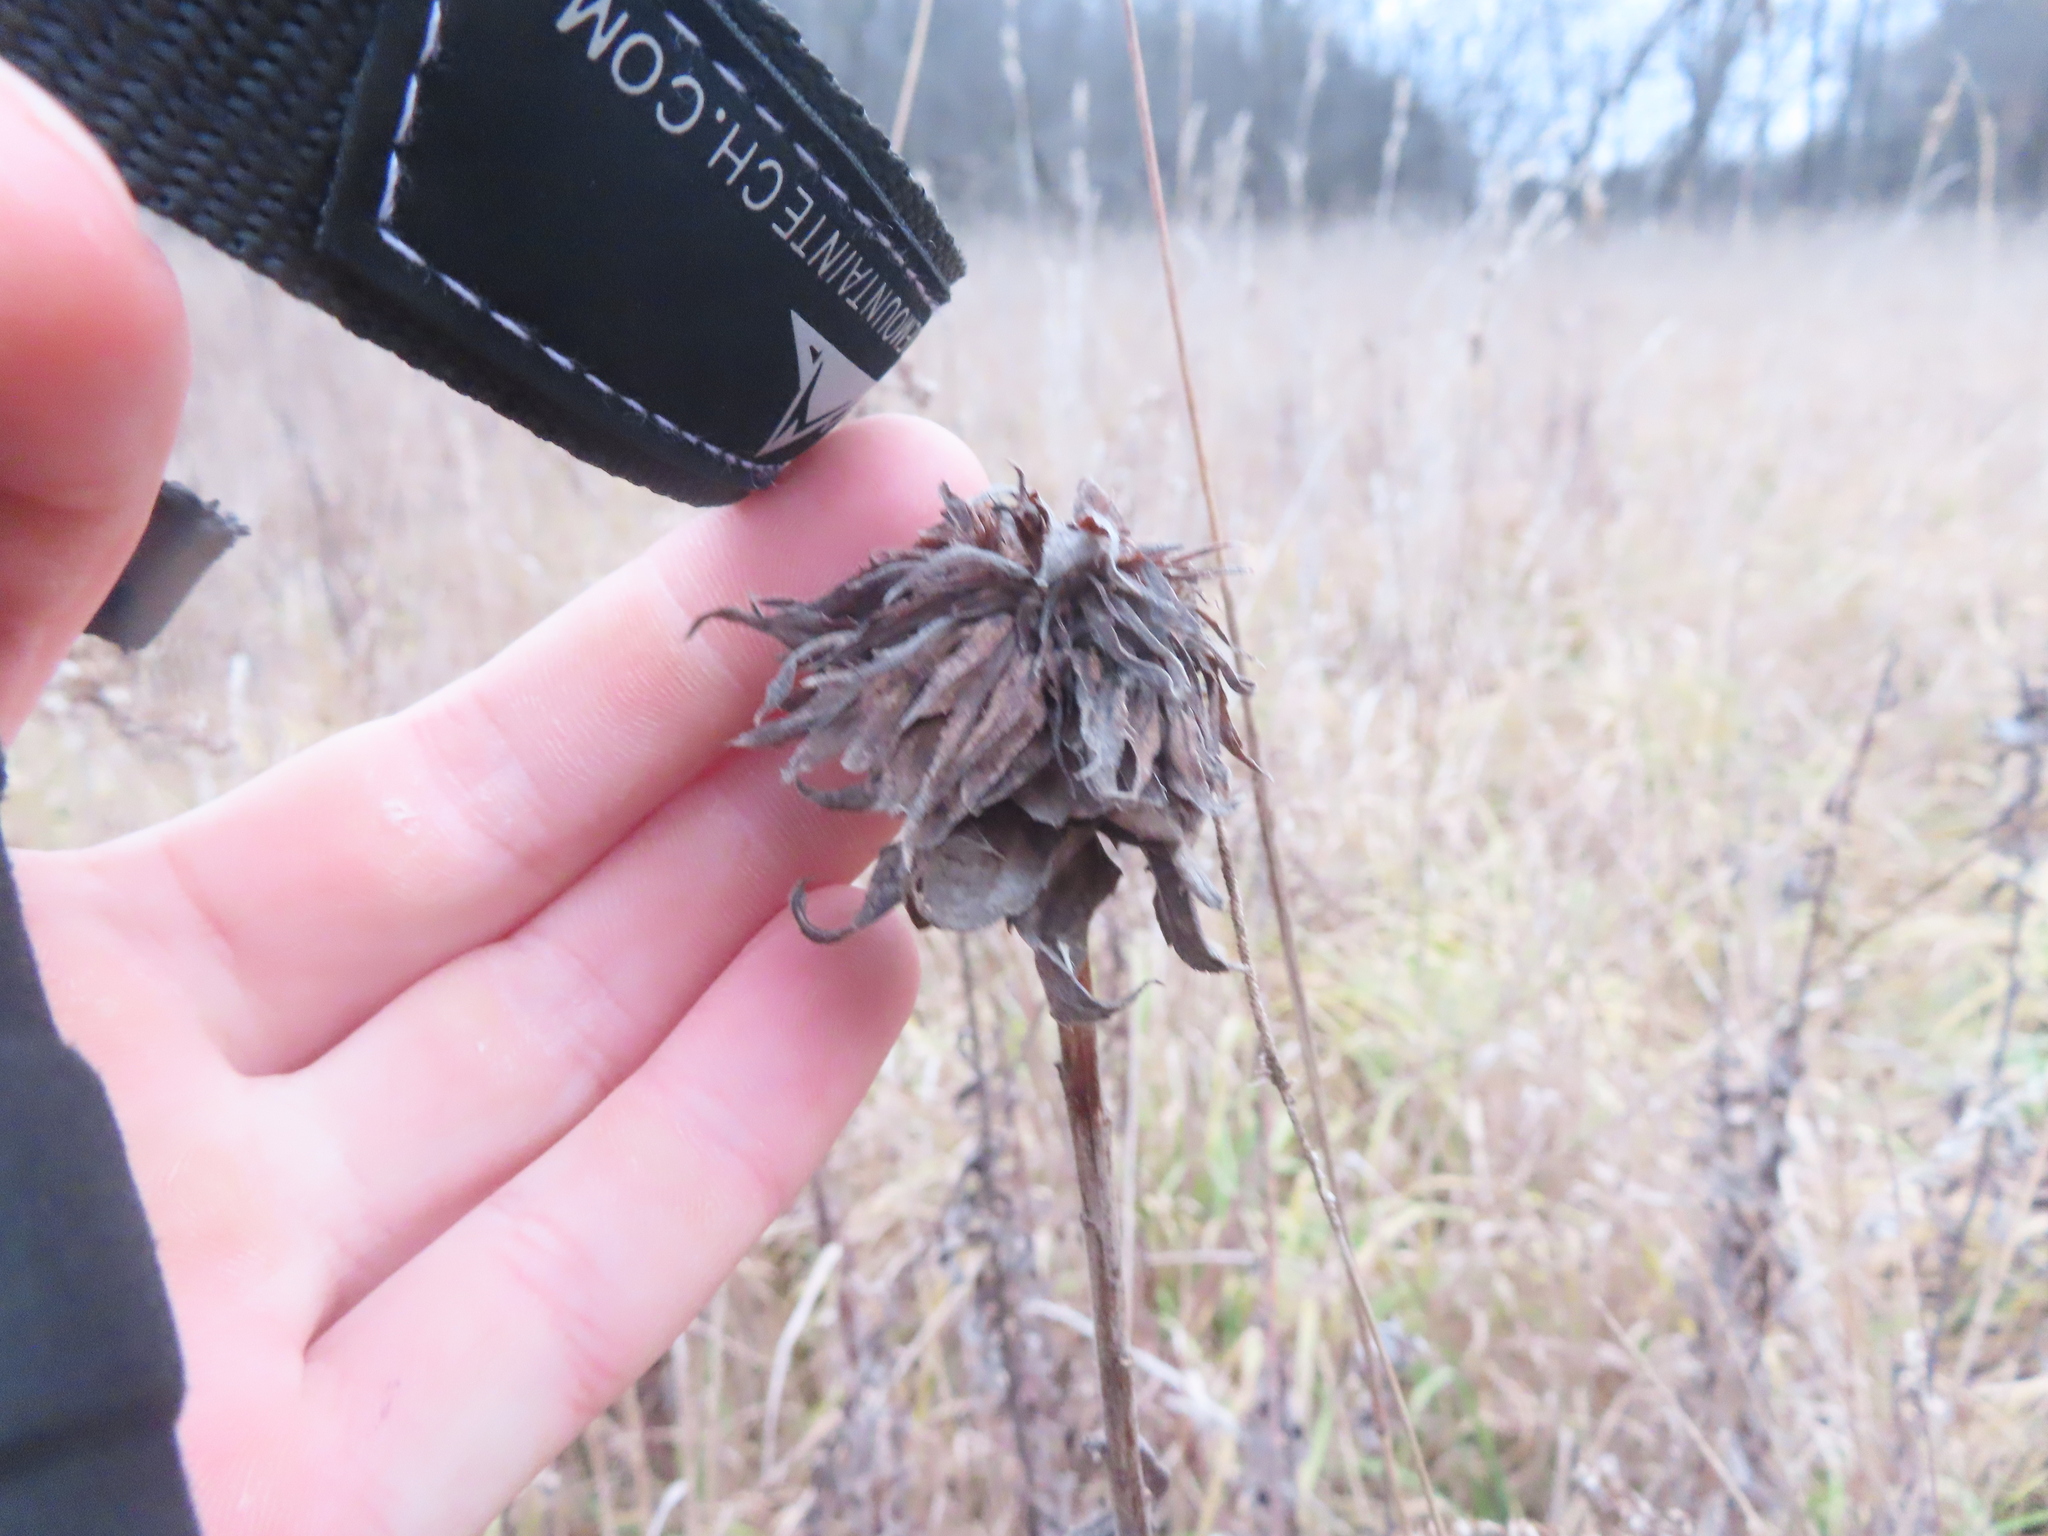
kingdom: Animalia
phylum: Arthropoda
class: Insecta
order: Diptera
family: Cecidomyiidae
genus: Rhopalomyia
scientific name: Rhopalomyia solidaginis
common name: Goldenrod bunch gall midge
